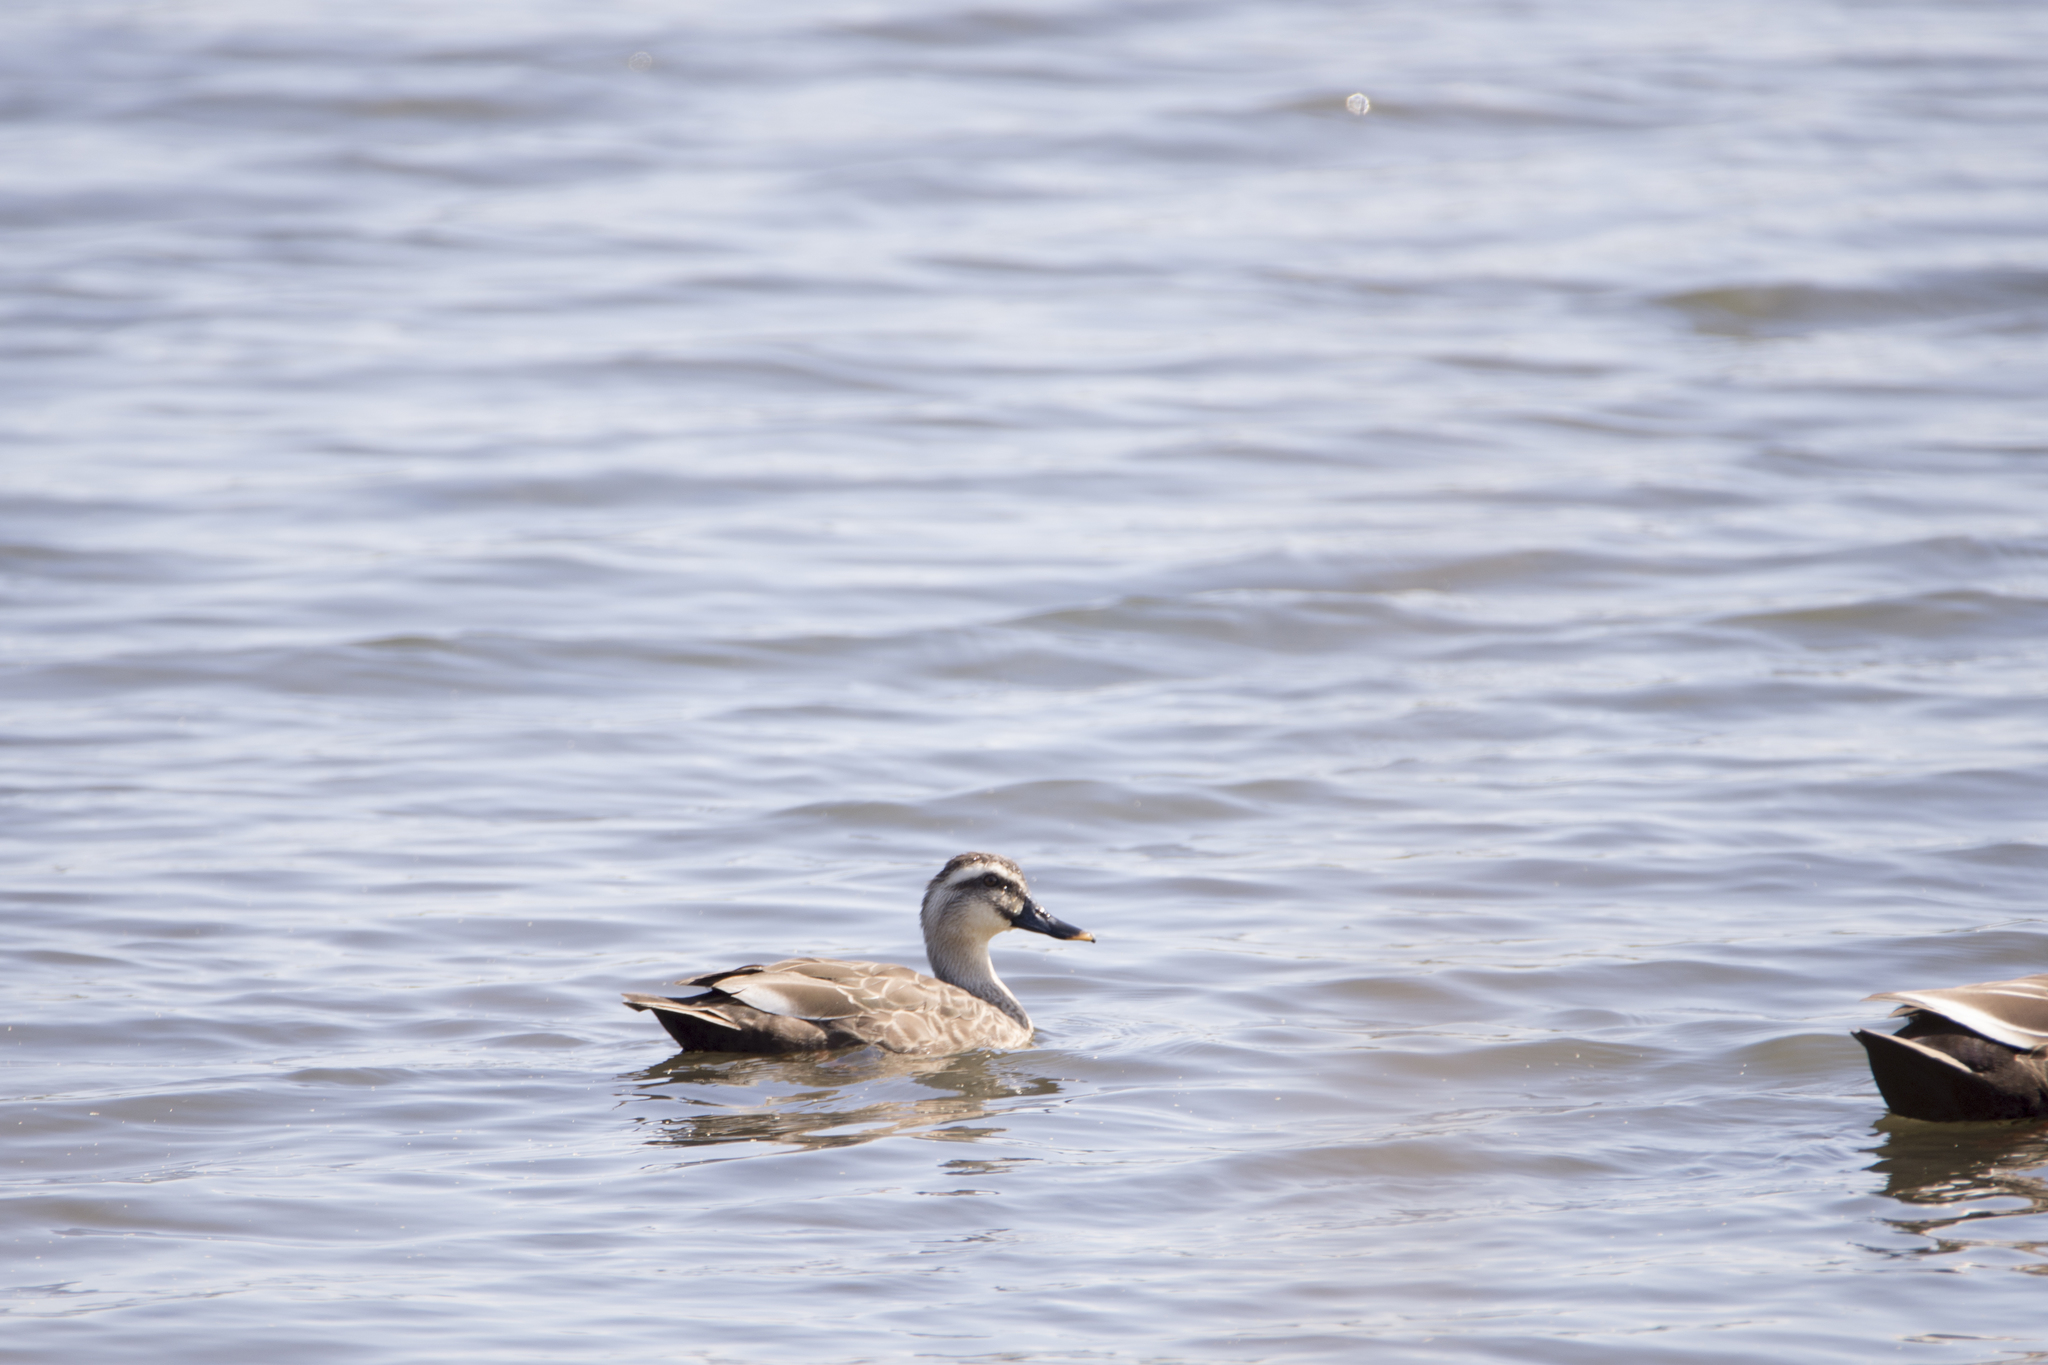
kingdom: Animalia
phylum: Chordata
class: Aves
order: Anseriformes
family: Anatidae
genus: Anas
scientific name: Anas zonorhyncha
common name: Eastern spot-billed duck
